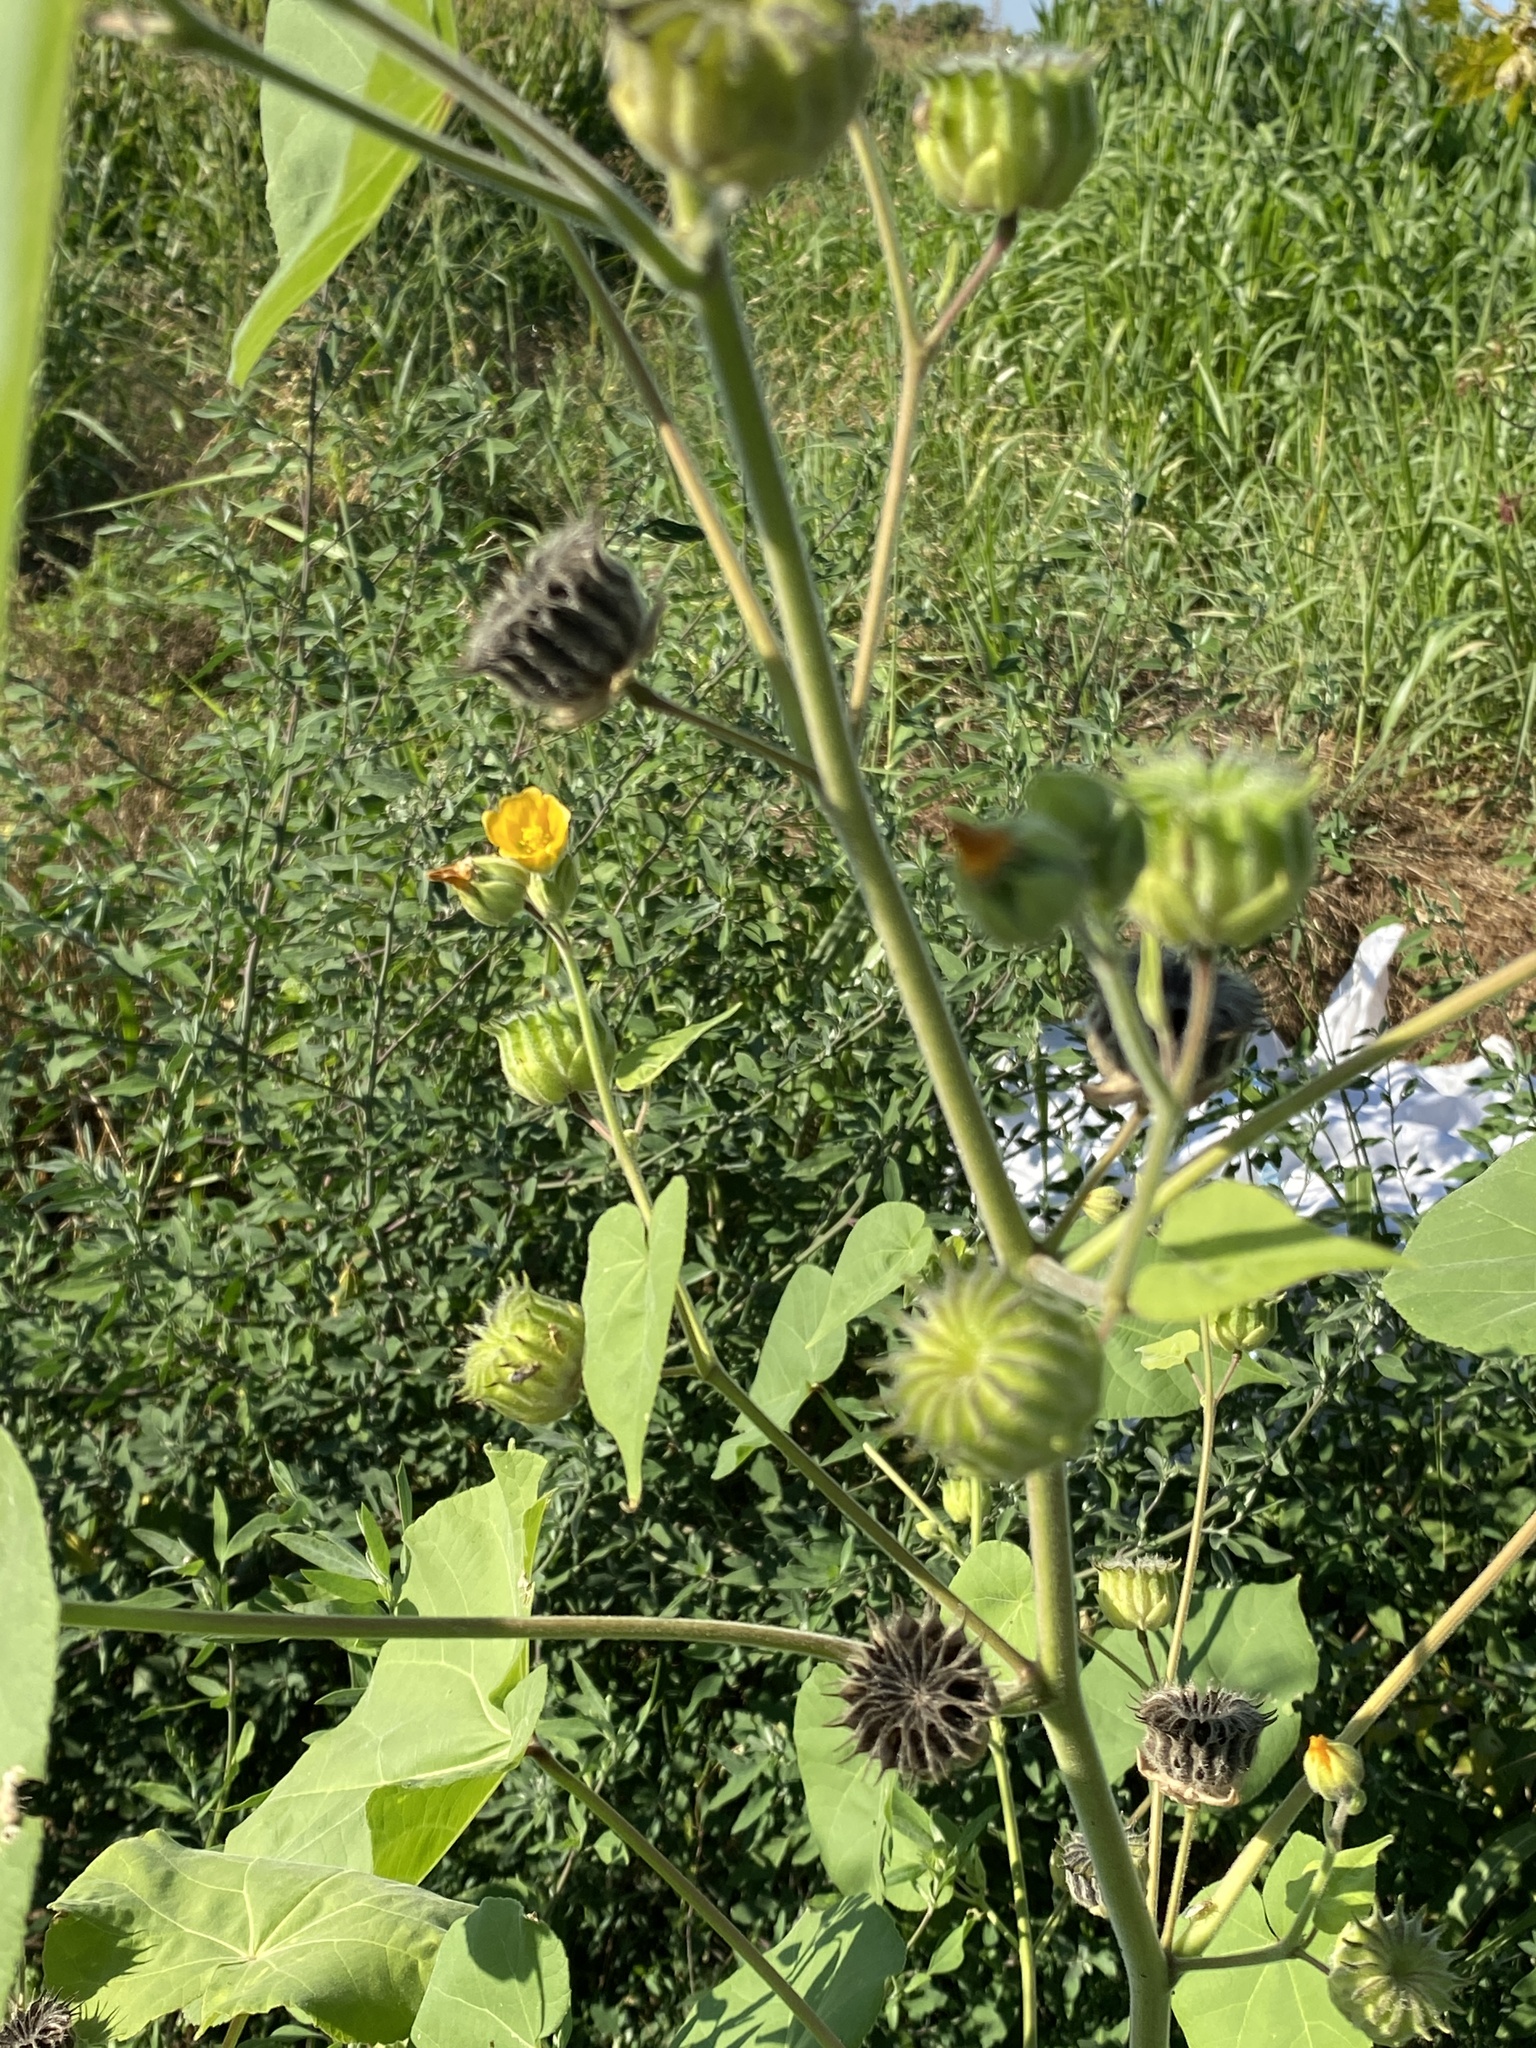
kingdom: Plantae
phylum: Tracheophyta
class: Magnoliopsida
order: Malvales
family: Malvaceae
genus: Abutilon
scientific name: Abutilon theophrasti
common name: Velvetleaf
